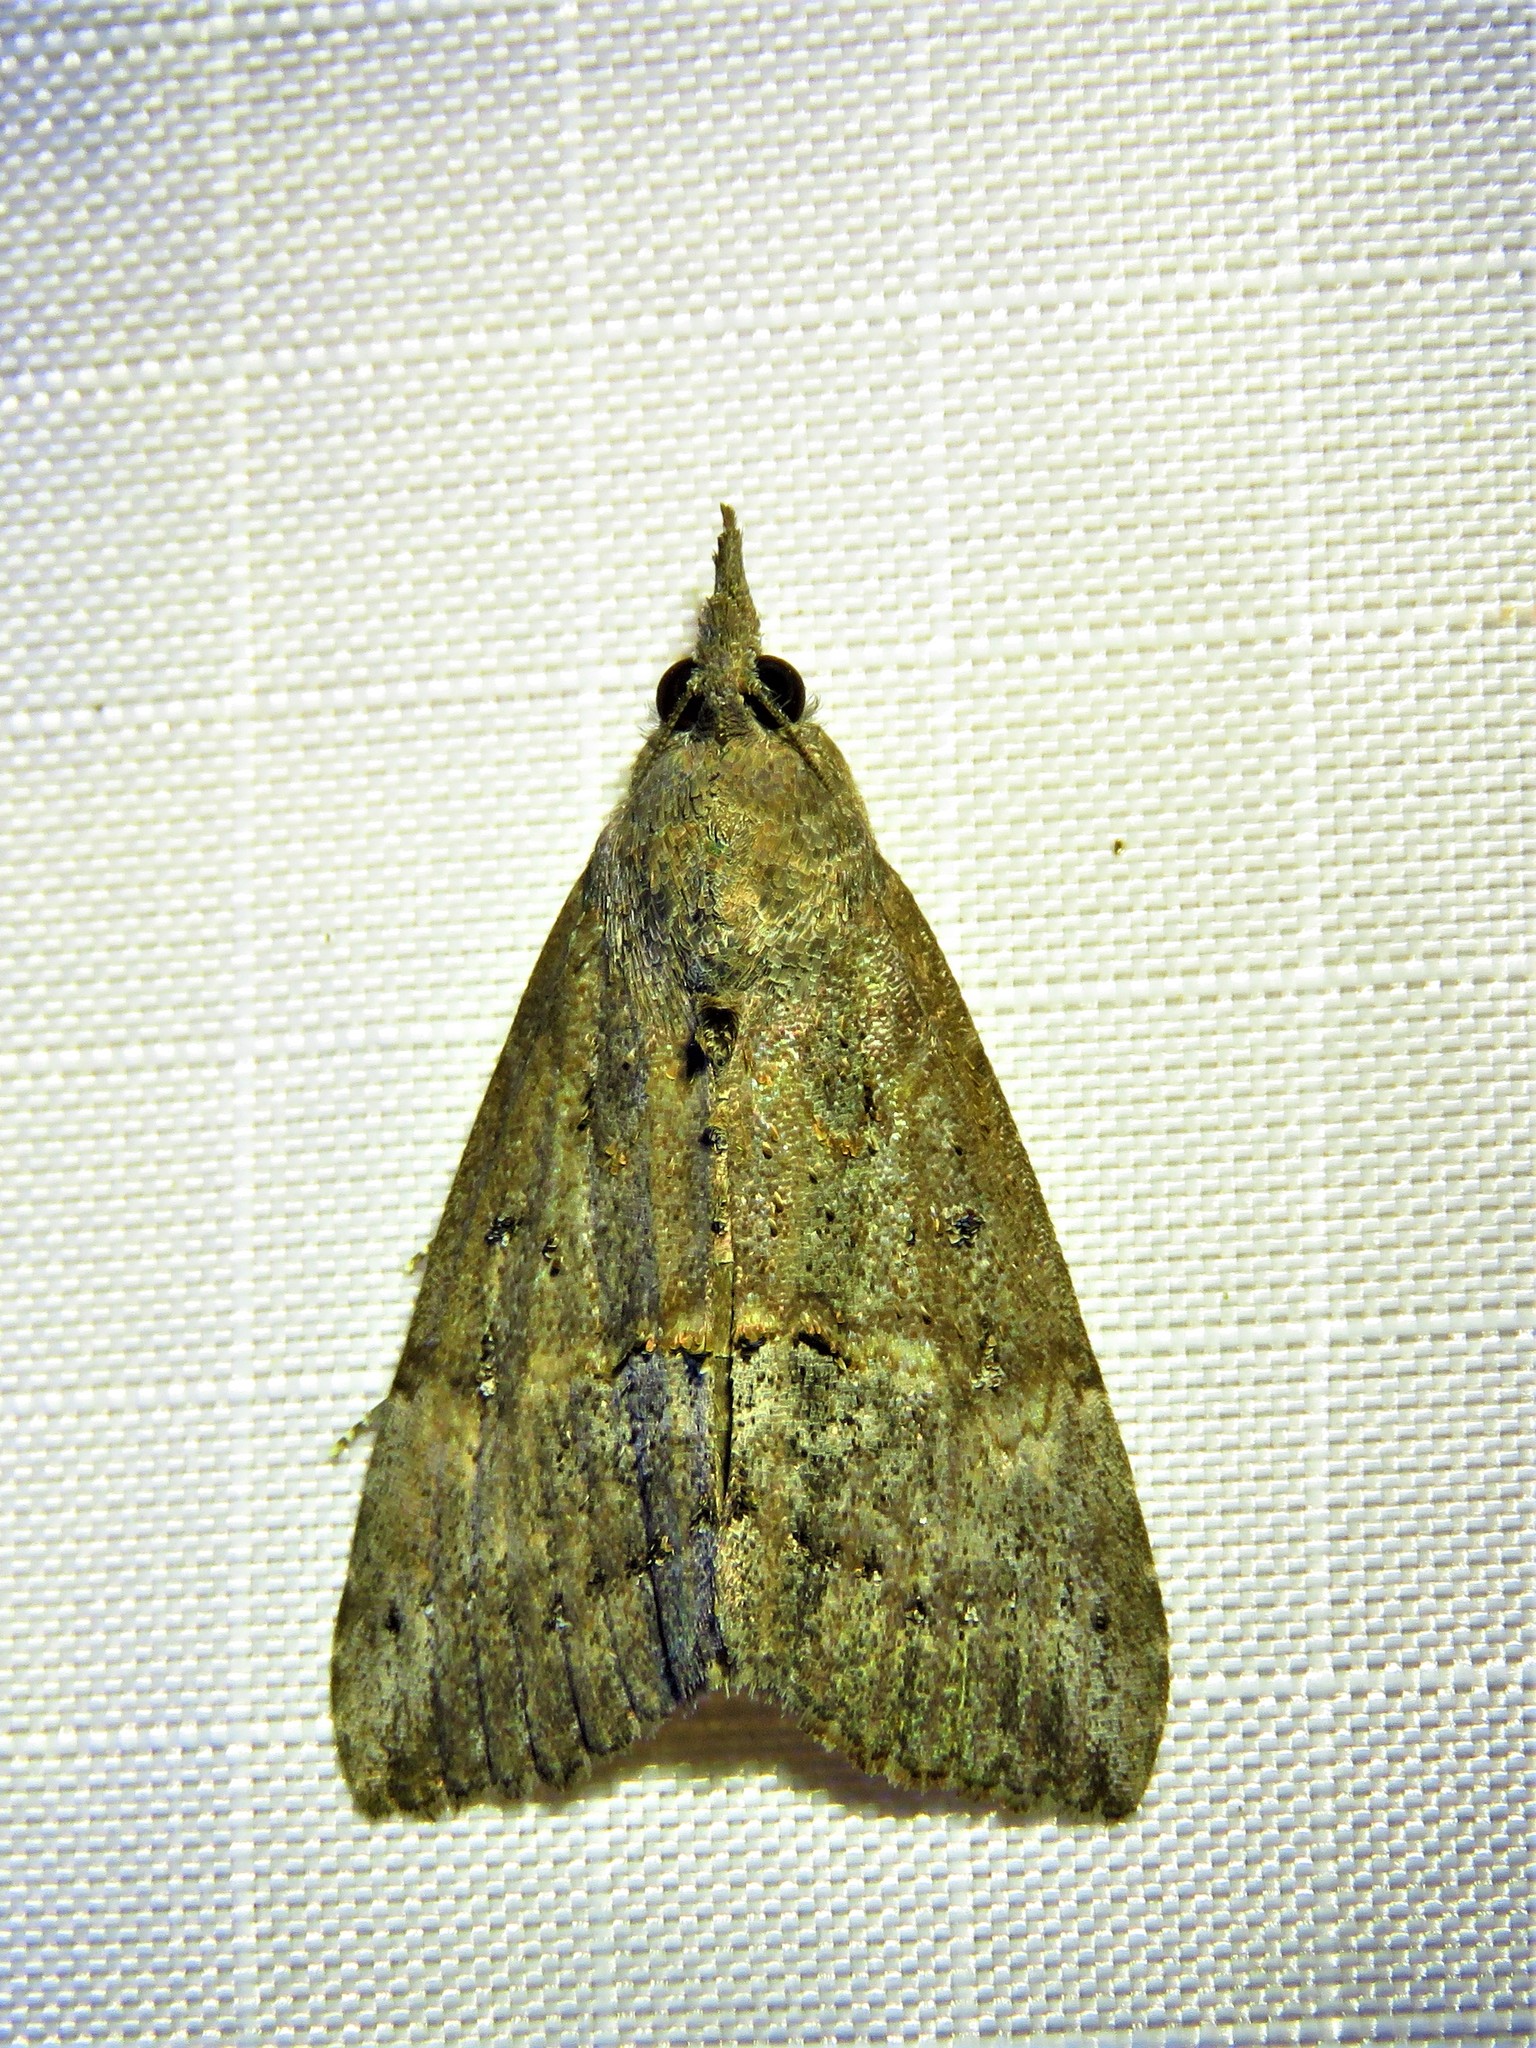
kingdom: Animalia
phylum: Arthropoda
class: Insecta
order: Lepidoptera
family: Erebidae
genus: Hypena
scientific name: Hypena scabra
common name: Green cloverworm
